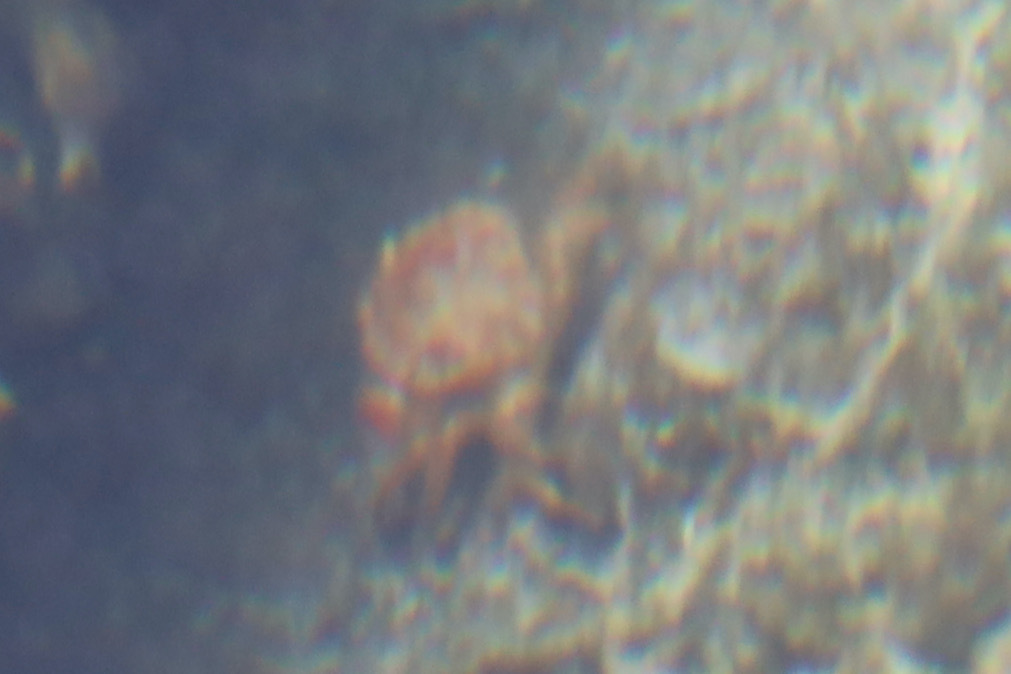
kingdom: Animalia
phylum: Arthropoda
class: Malacostraca
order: Decapoda
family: Cancridae
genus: Glebocarcinus
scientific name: Glebocarcinus oregonensis
